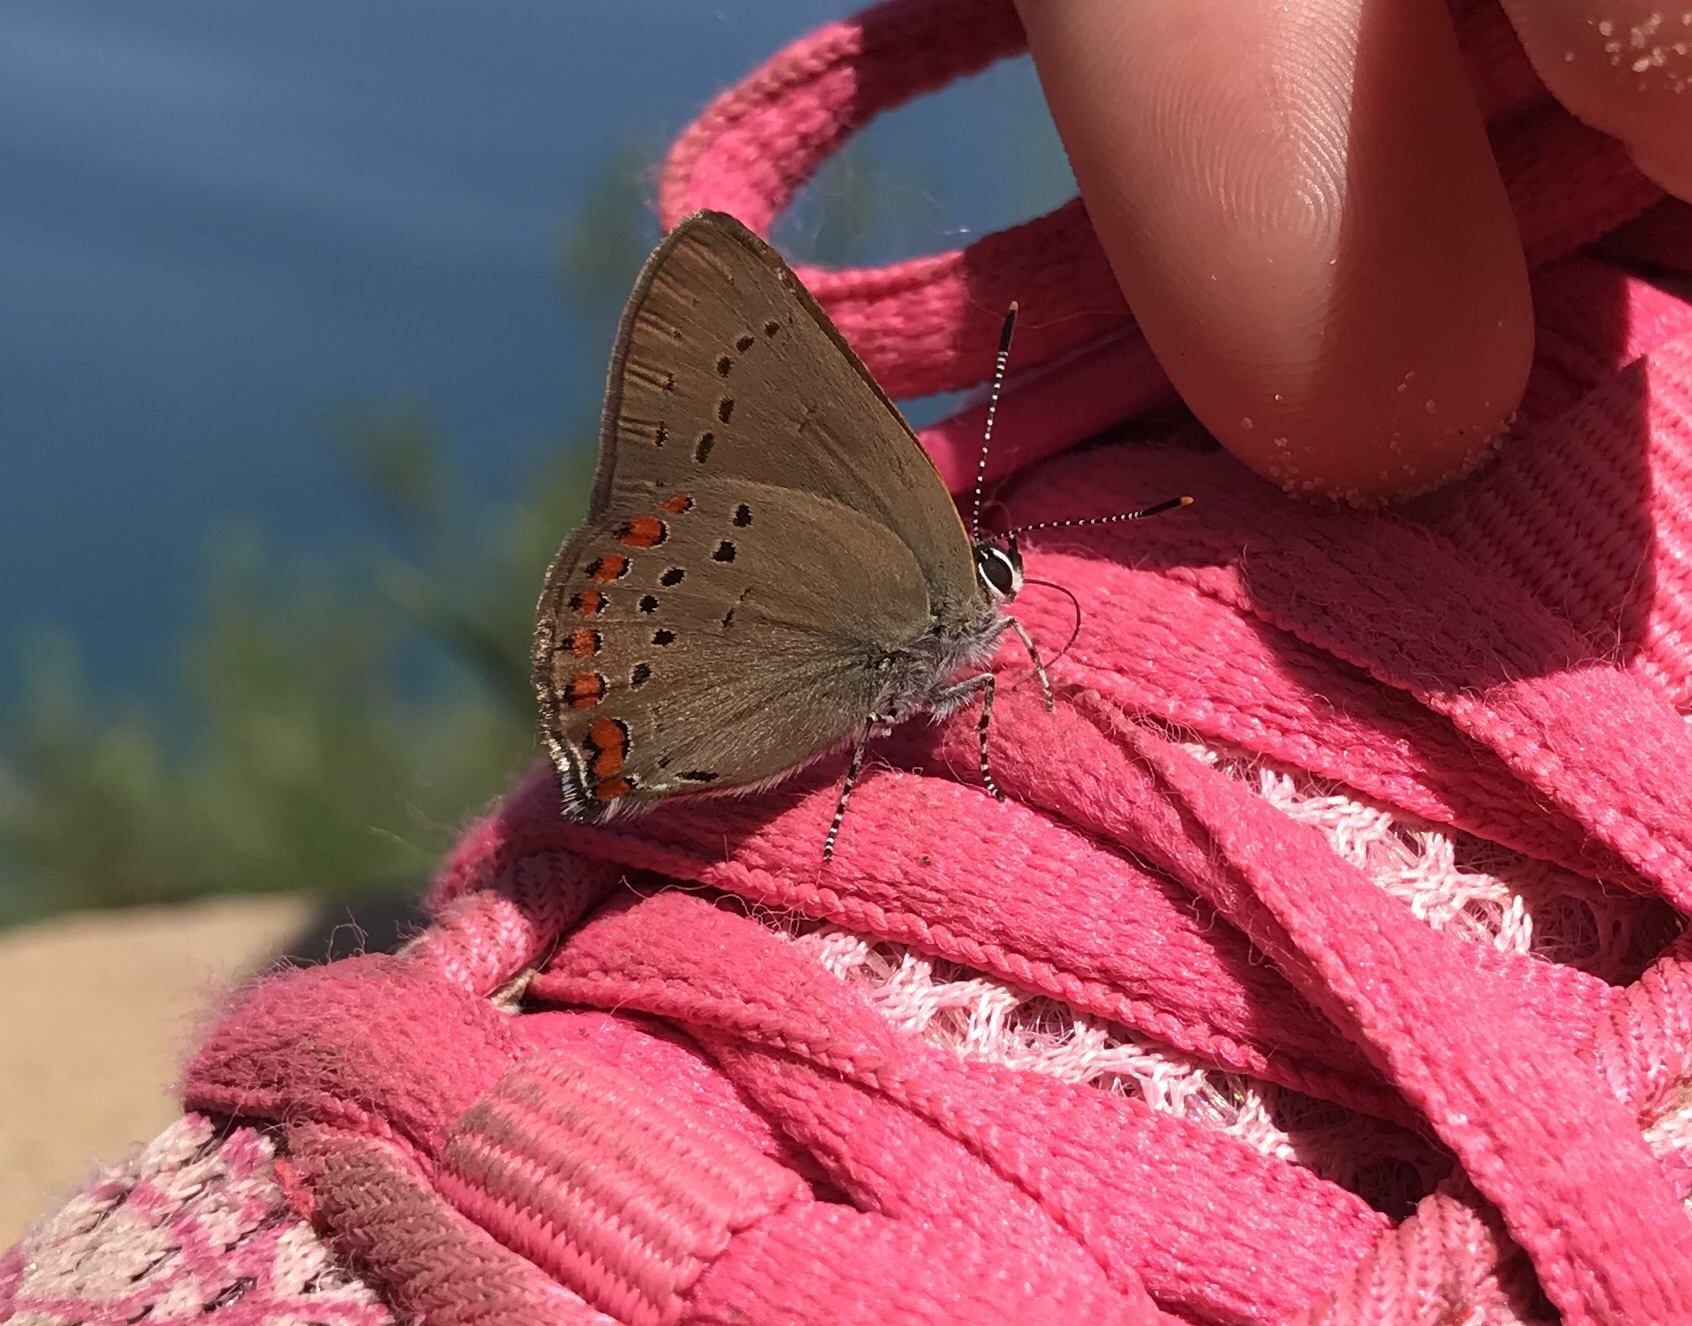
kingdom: Animalia
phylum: Arthropoda
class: Insecta
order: Lepidoptera
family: Lycaenidae
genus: Harkenclenus
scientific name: Harkenclenus titus
